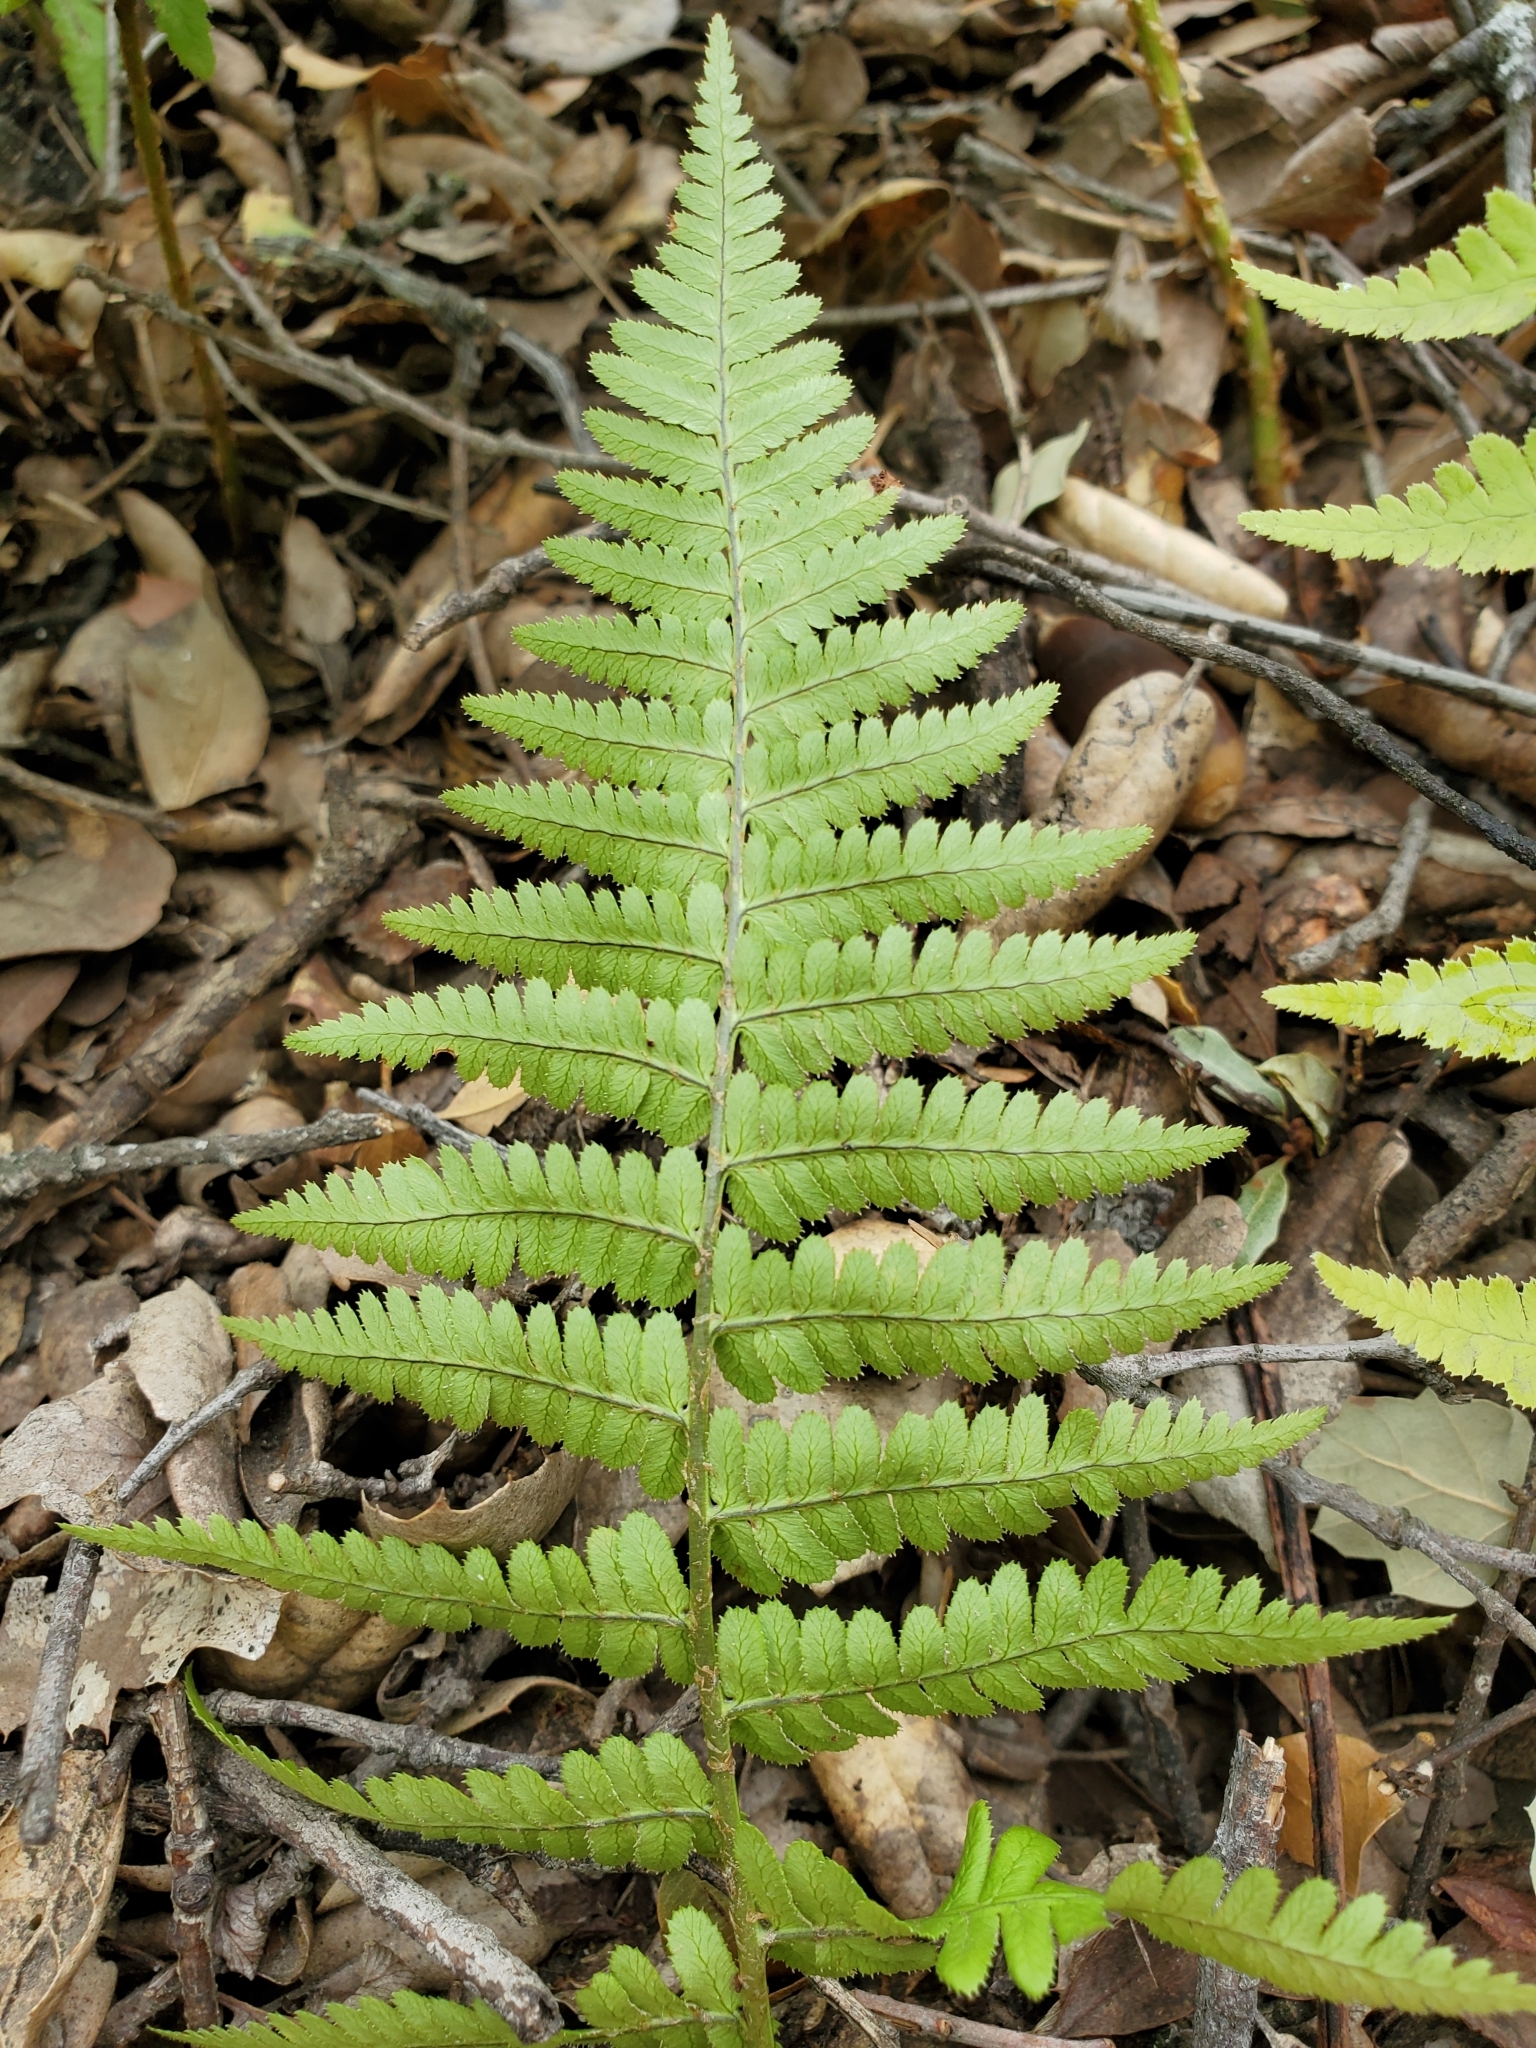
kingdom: Plantae
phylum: Tracheophyta
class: Polypodiopsida
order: Polypodiales
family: Dryopteridaceae
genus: Dryopteris
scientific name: Dryopteris arguta
